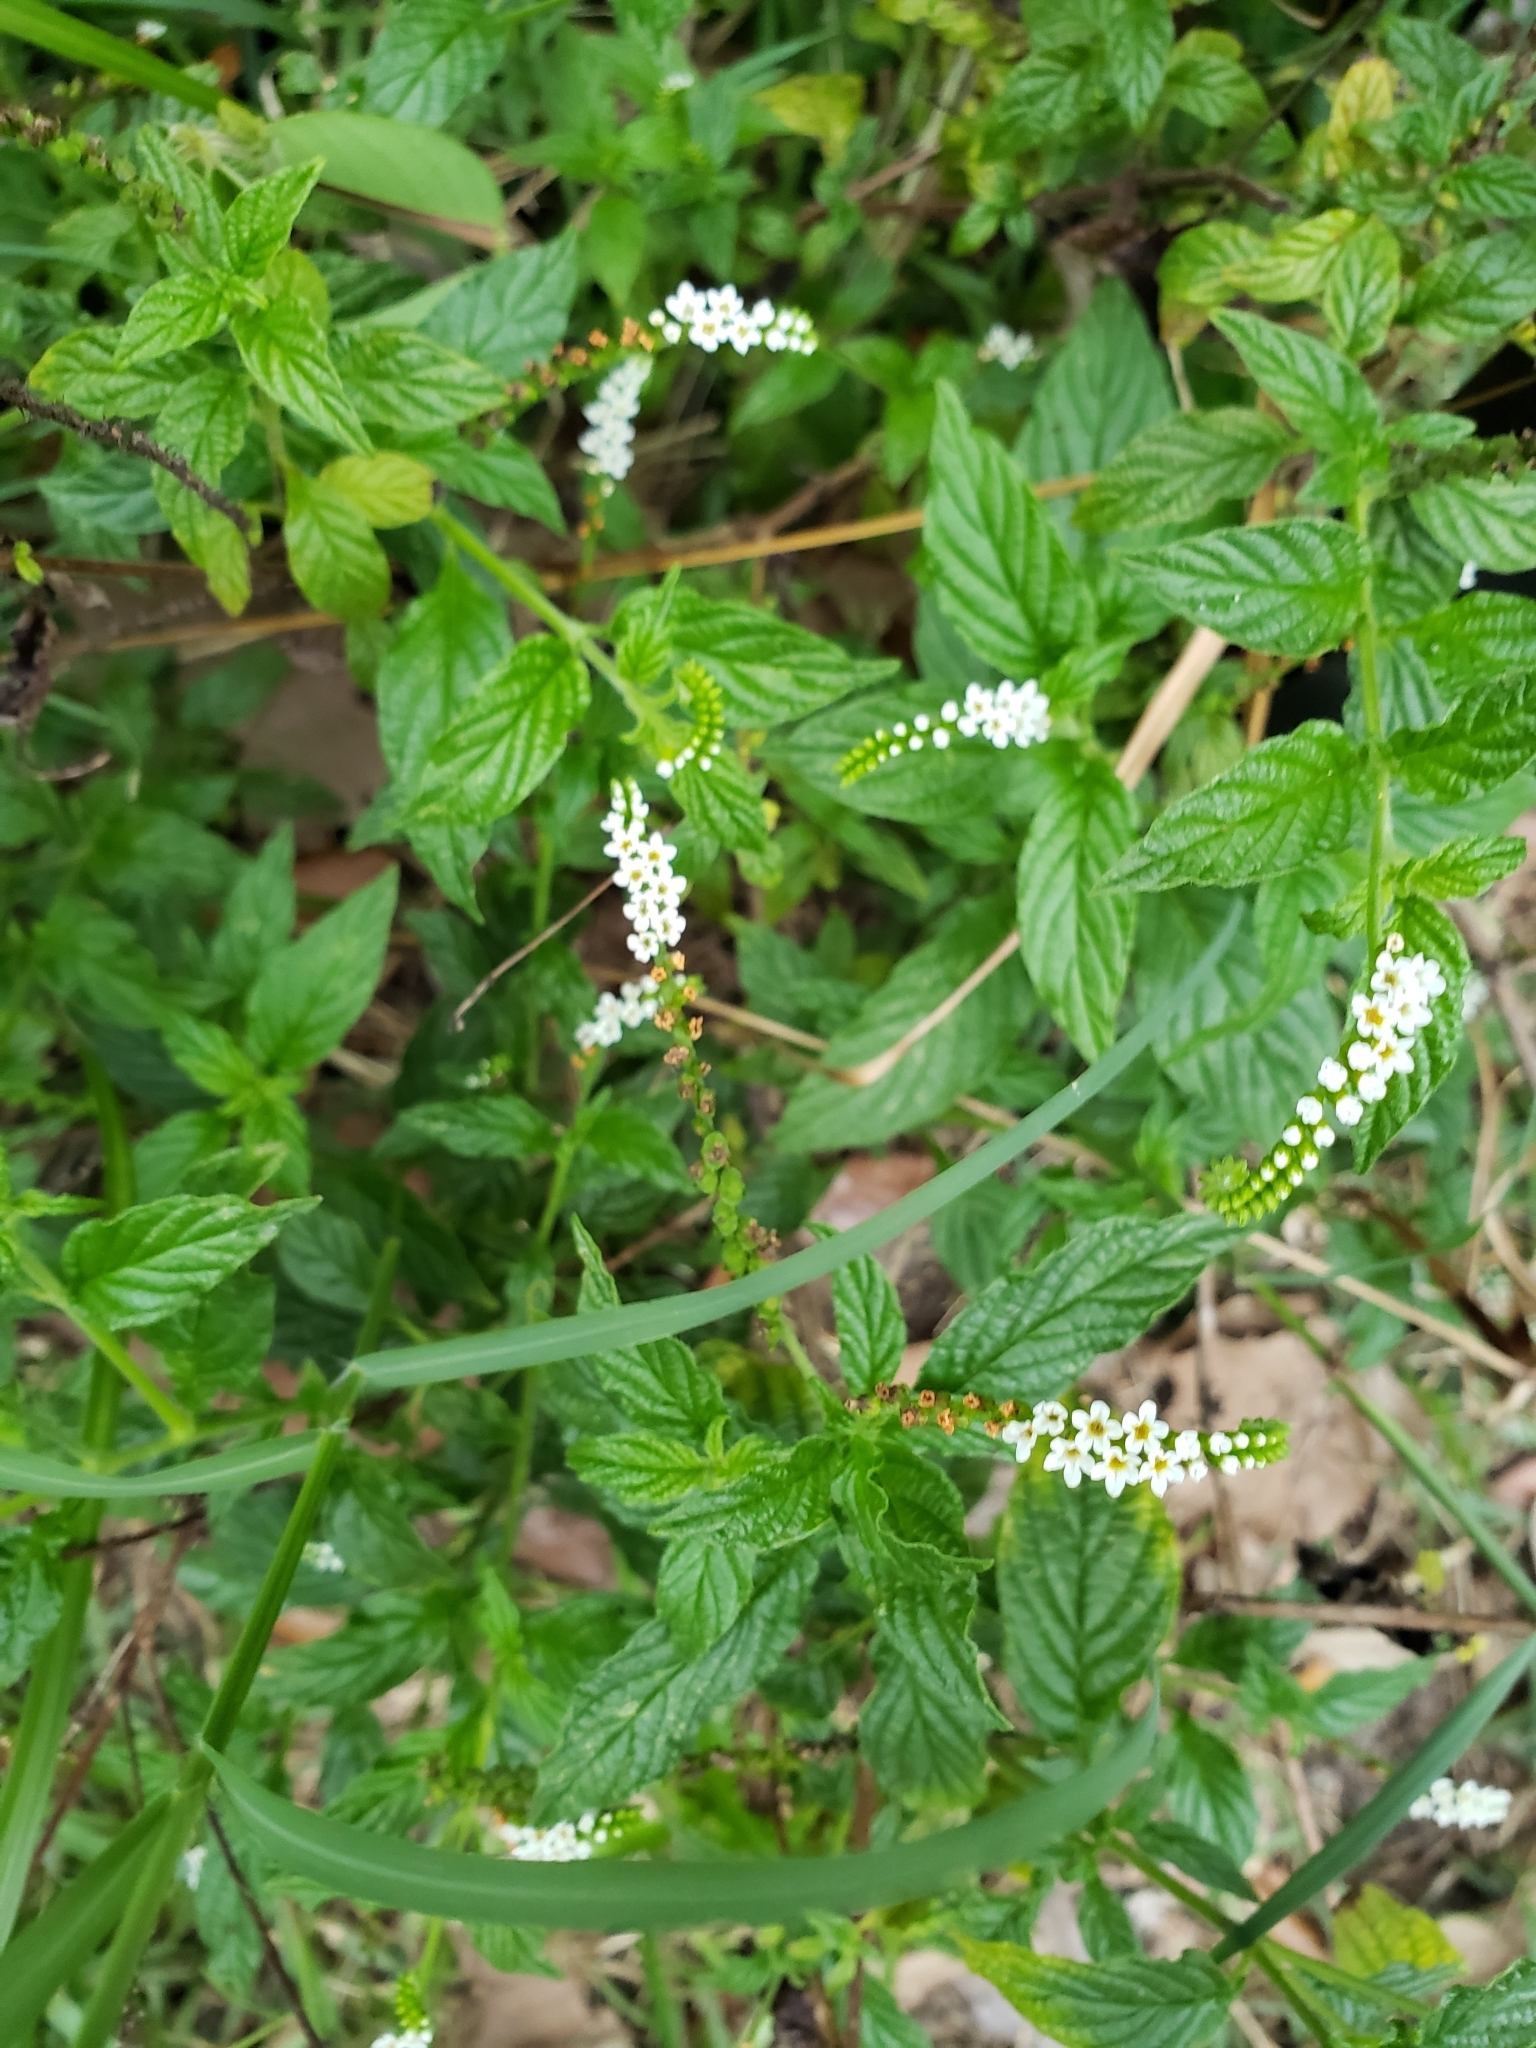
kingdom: Plantae
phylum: Tracheophyta
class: Magnoliopsida
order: Boraginales
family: Heliotropiaceae
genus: Heliotropium
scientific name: Heliotropium angiospermum
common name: Eye bright
